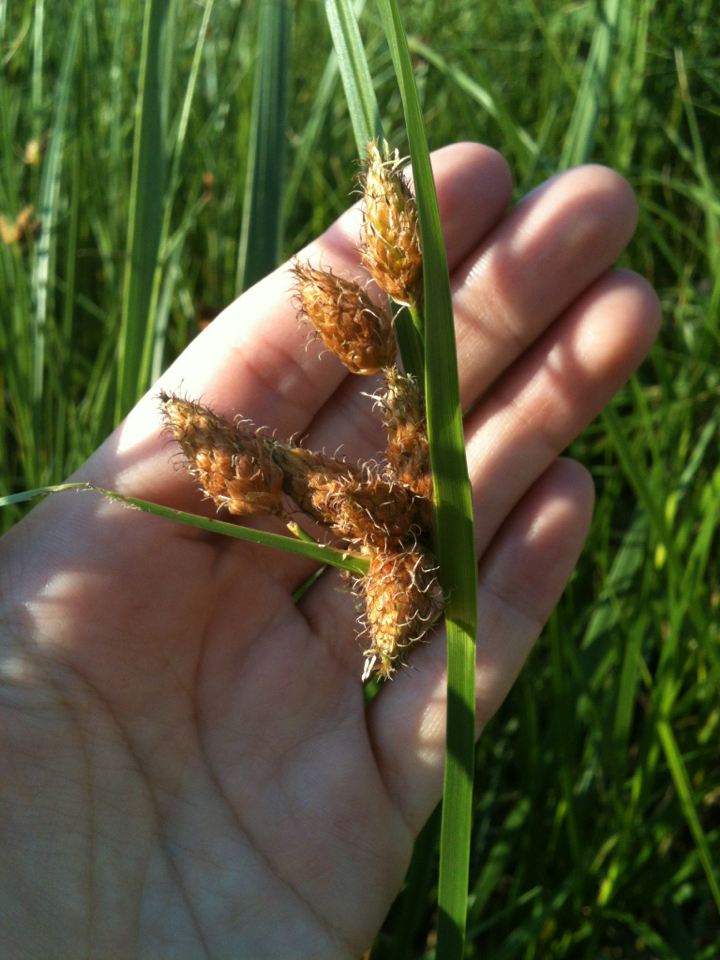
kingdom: Plantae
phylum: Tracheophyta
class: Liliopsida
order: Poales
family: Cyperaceae
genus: Bolboschoenus
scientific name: Bolboschoenus robustus
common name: Seacoast bulrush
